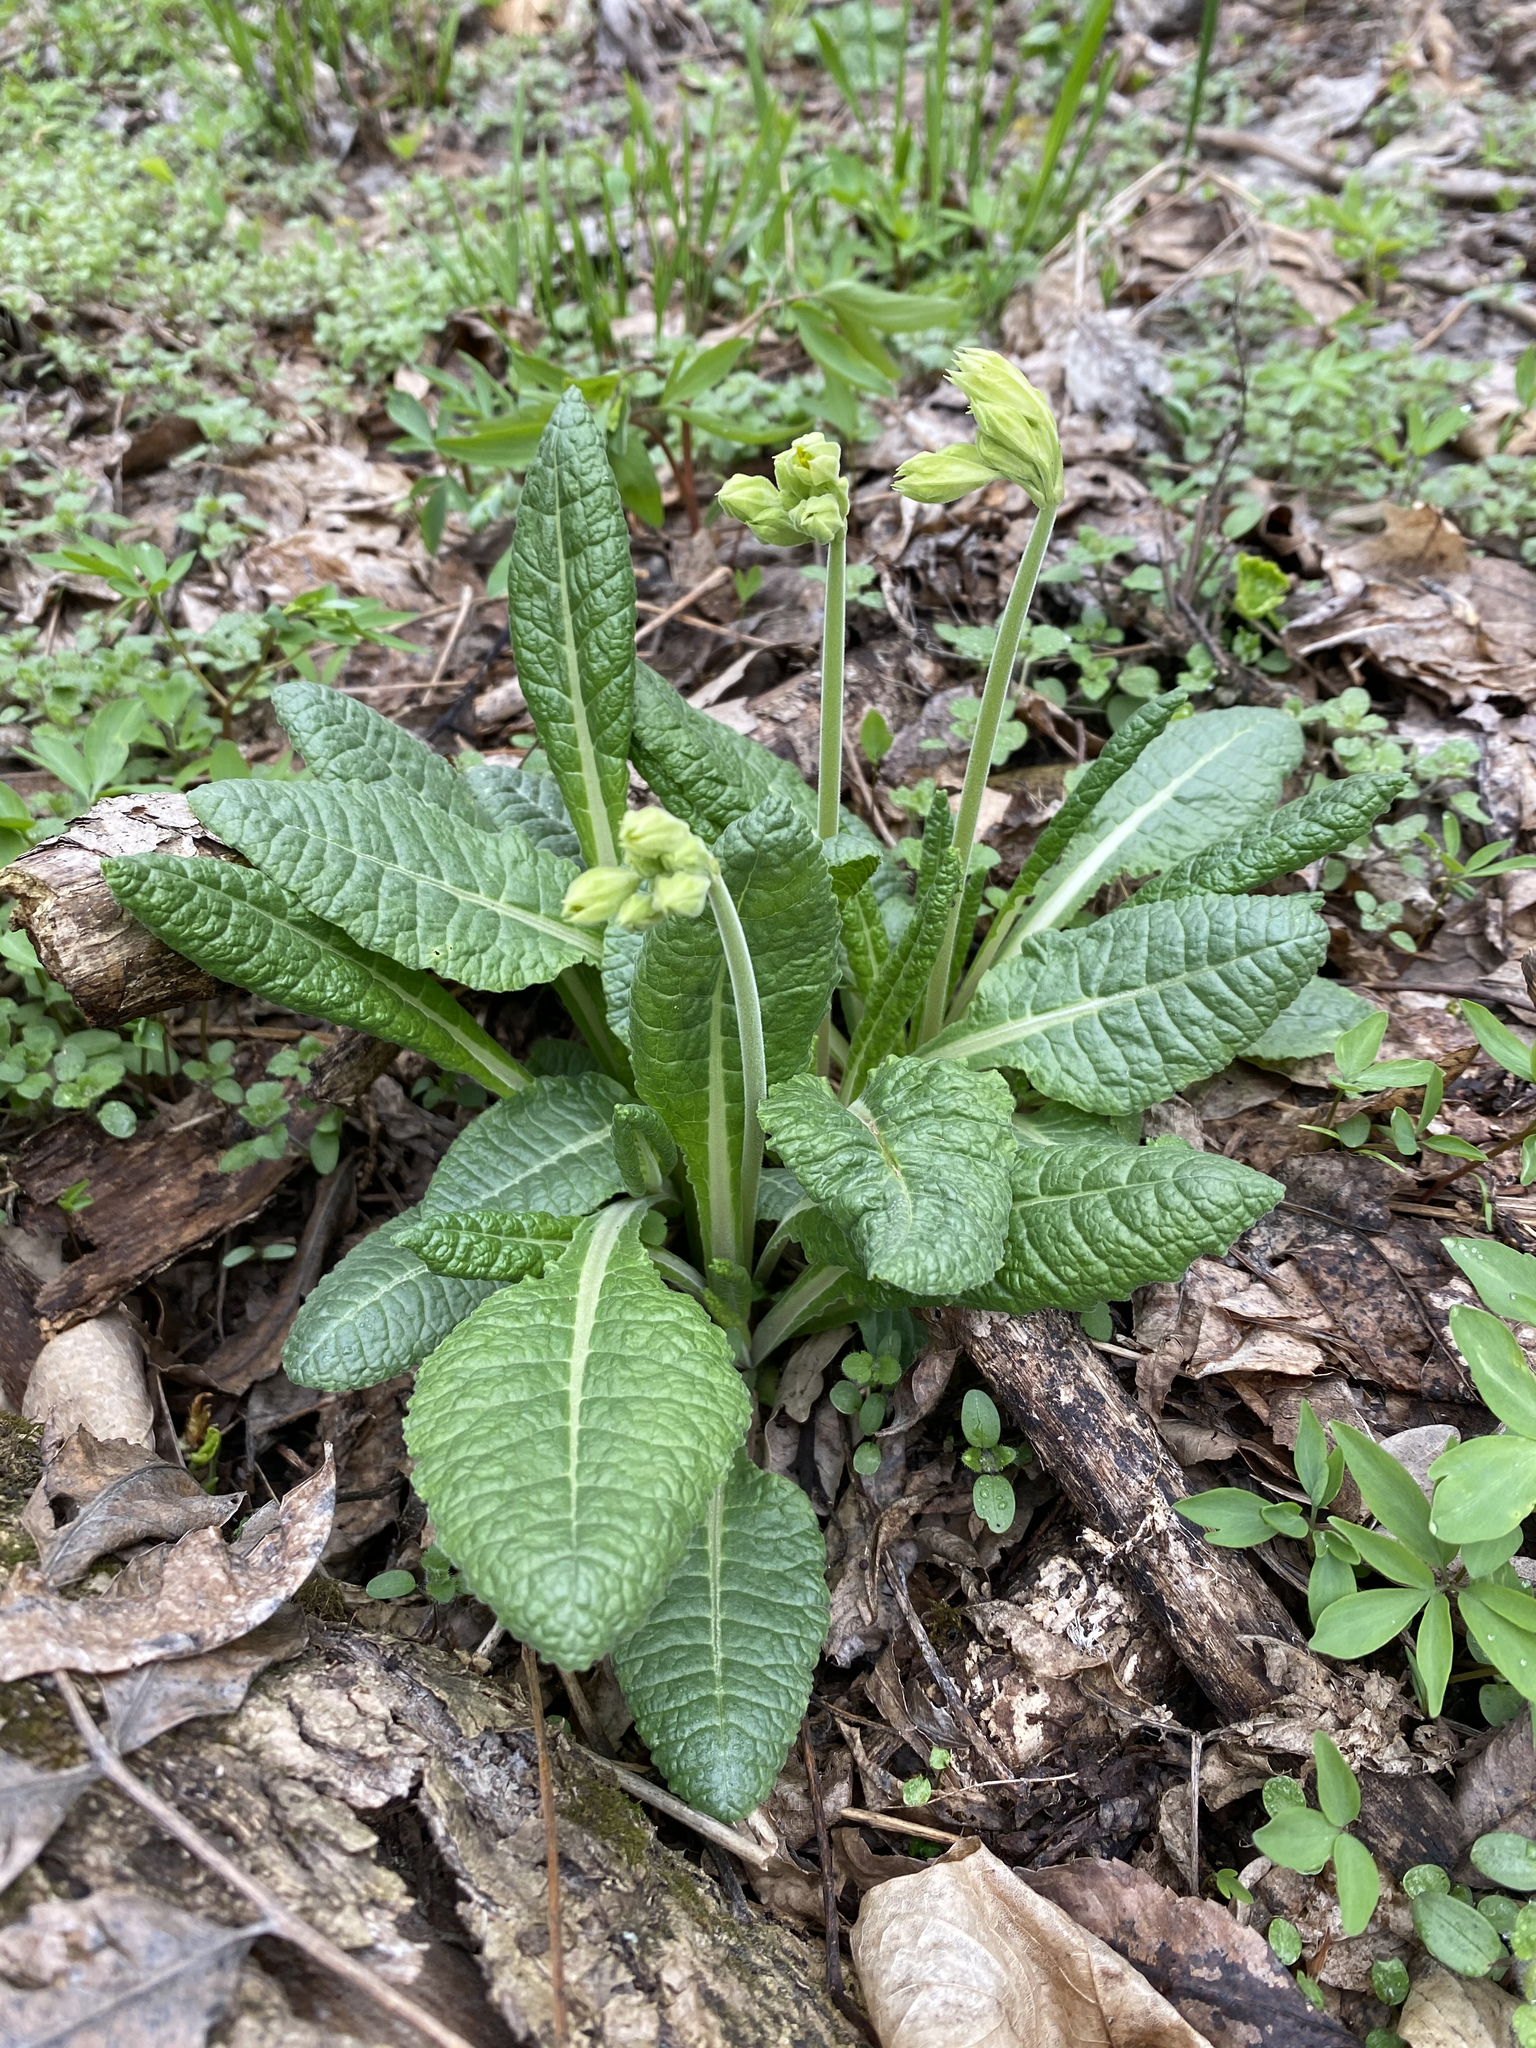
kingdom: Plantae
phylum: Tracheophyta
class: Magnoliopsida
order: Ericales
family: Primulaceae
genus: Primula
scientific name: Primula veris
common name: Cowslip
